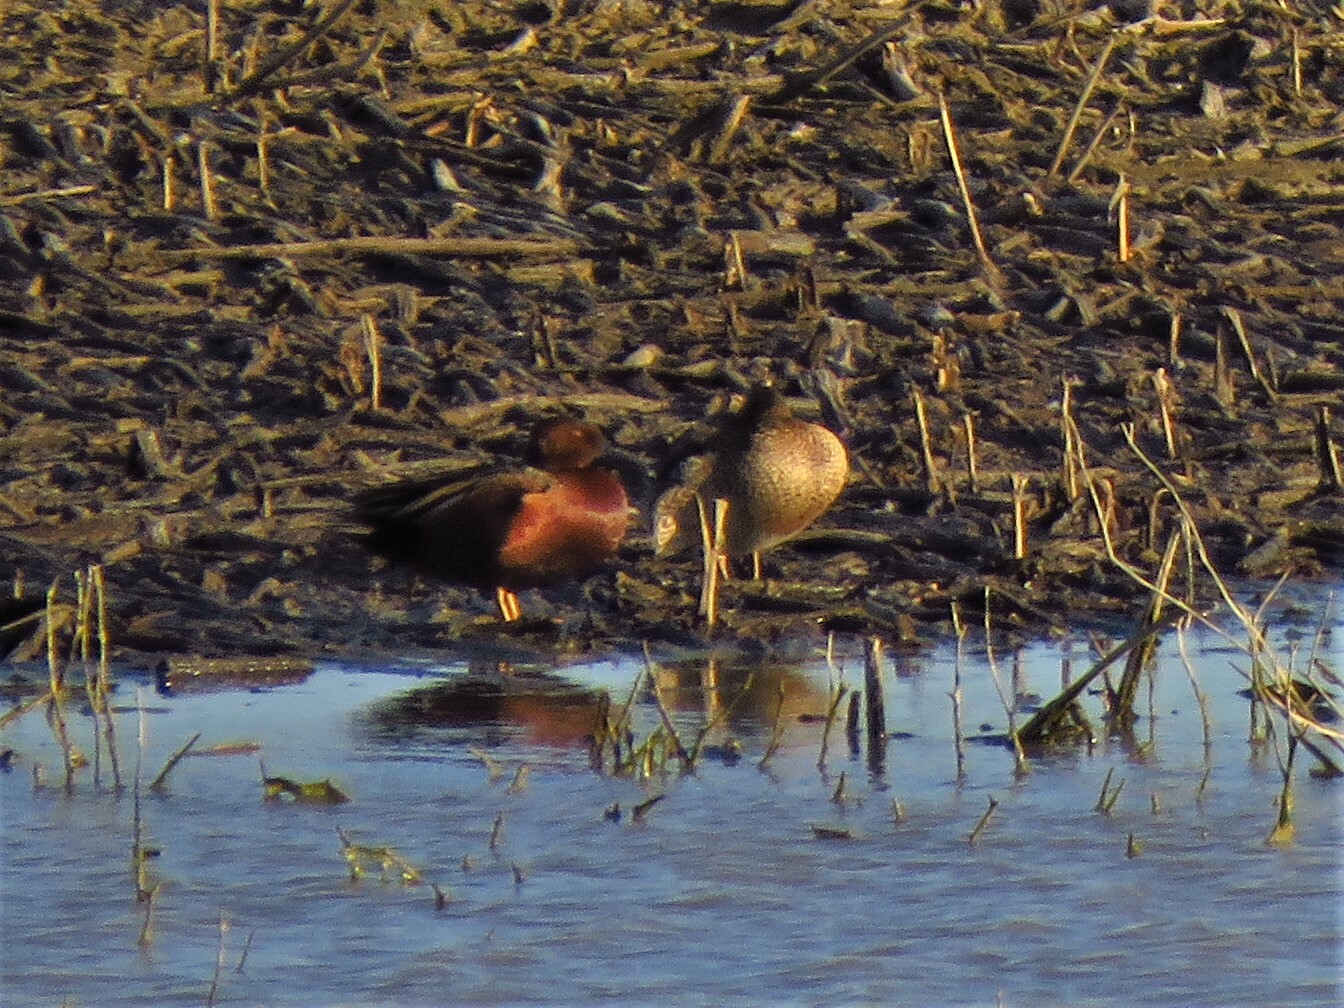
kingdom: Animalia
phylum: Chordata
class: Aves
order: Anseriformes
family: Anatidae
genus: Spatula
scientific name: Spatula cyanoptera
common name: Cinnamon teal
